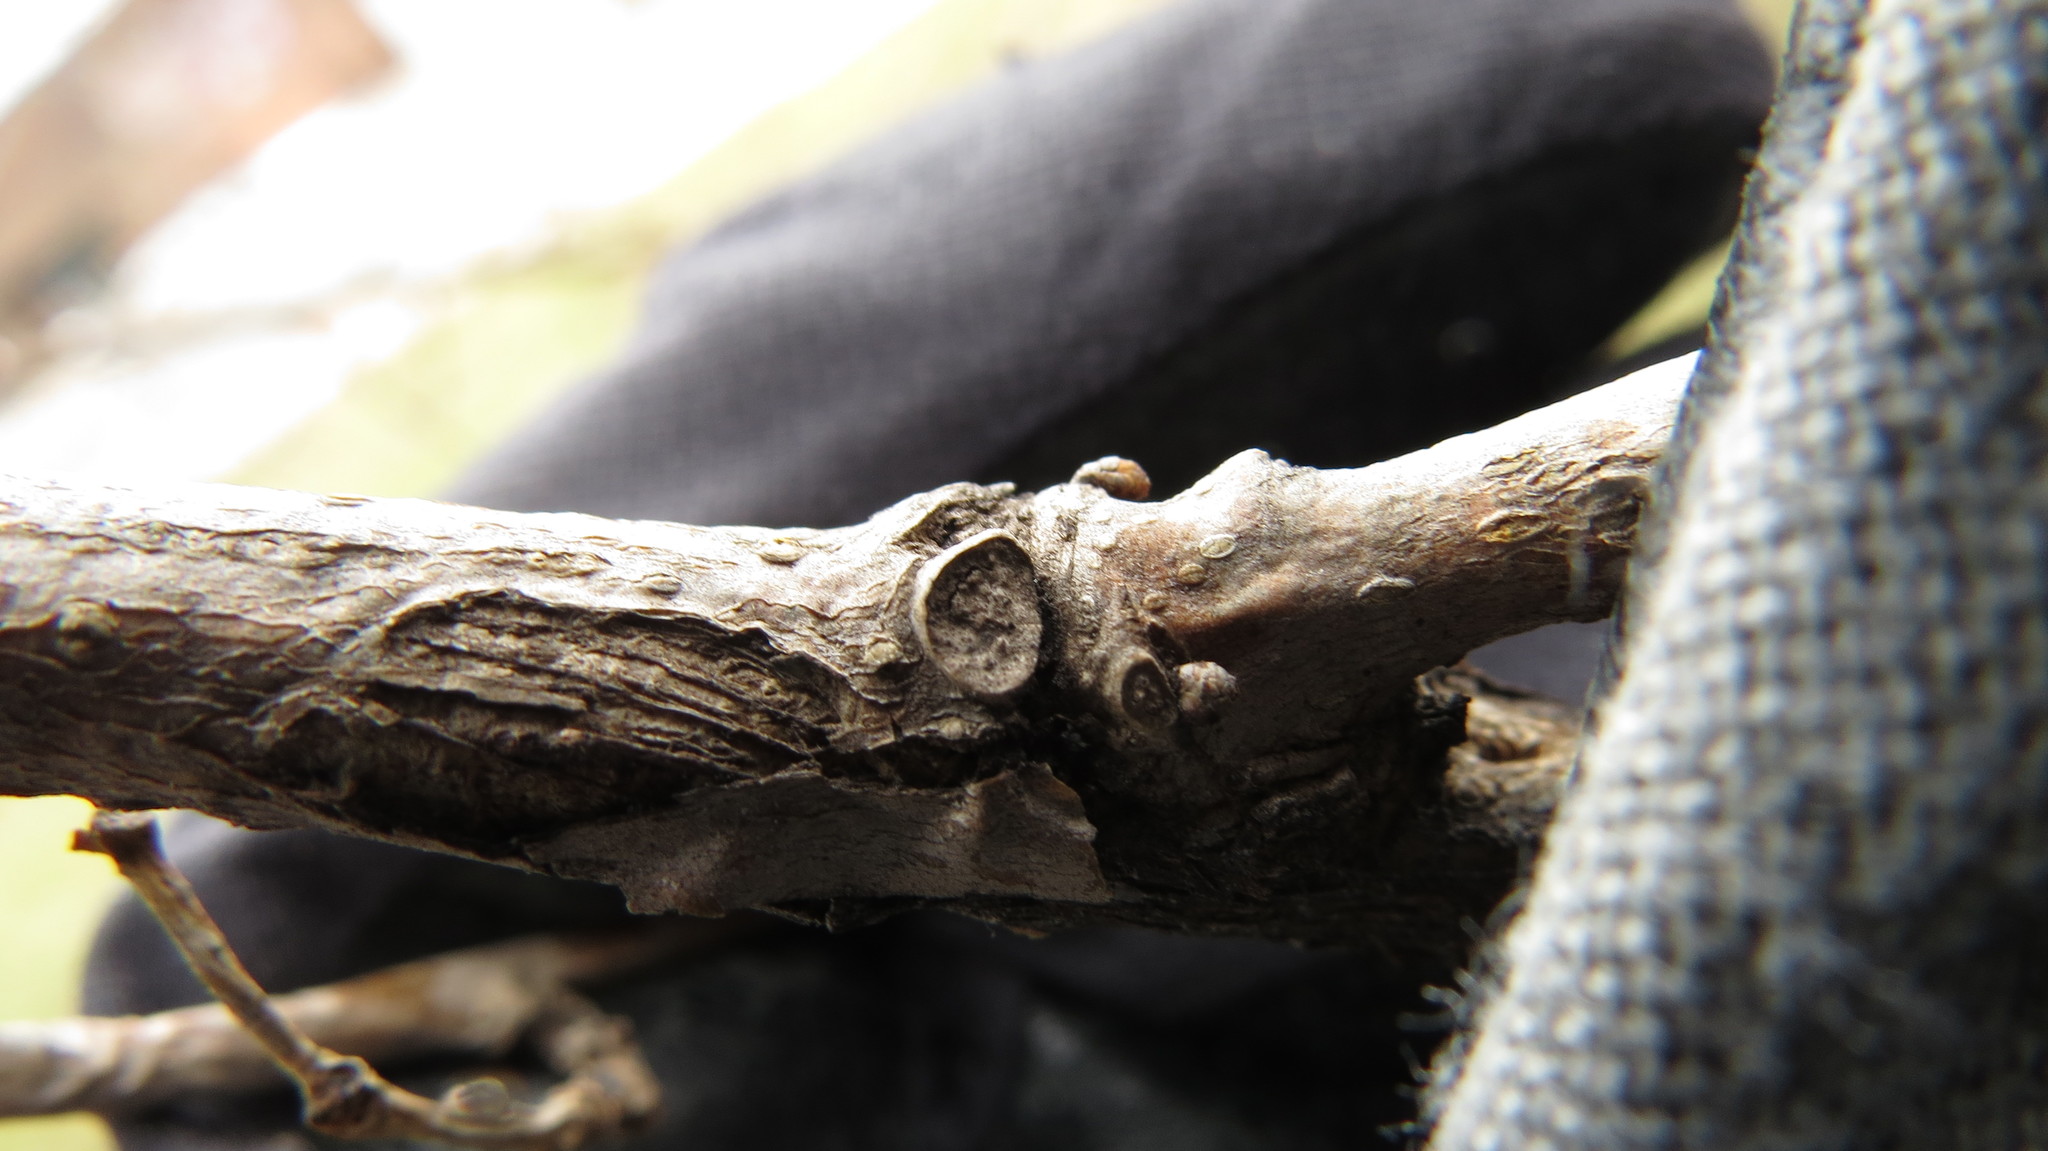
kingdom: Plantae
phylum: Tracheophyta
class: Magnoliopsida
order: Rosales
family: Moraceae
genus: Morus
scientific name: Morus alba
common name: White mulberry
